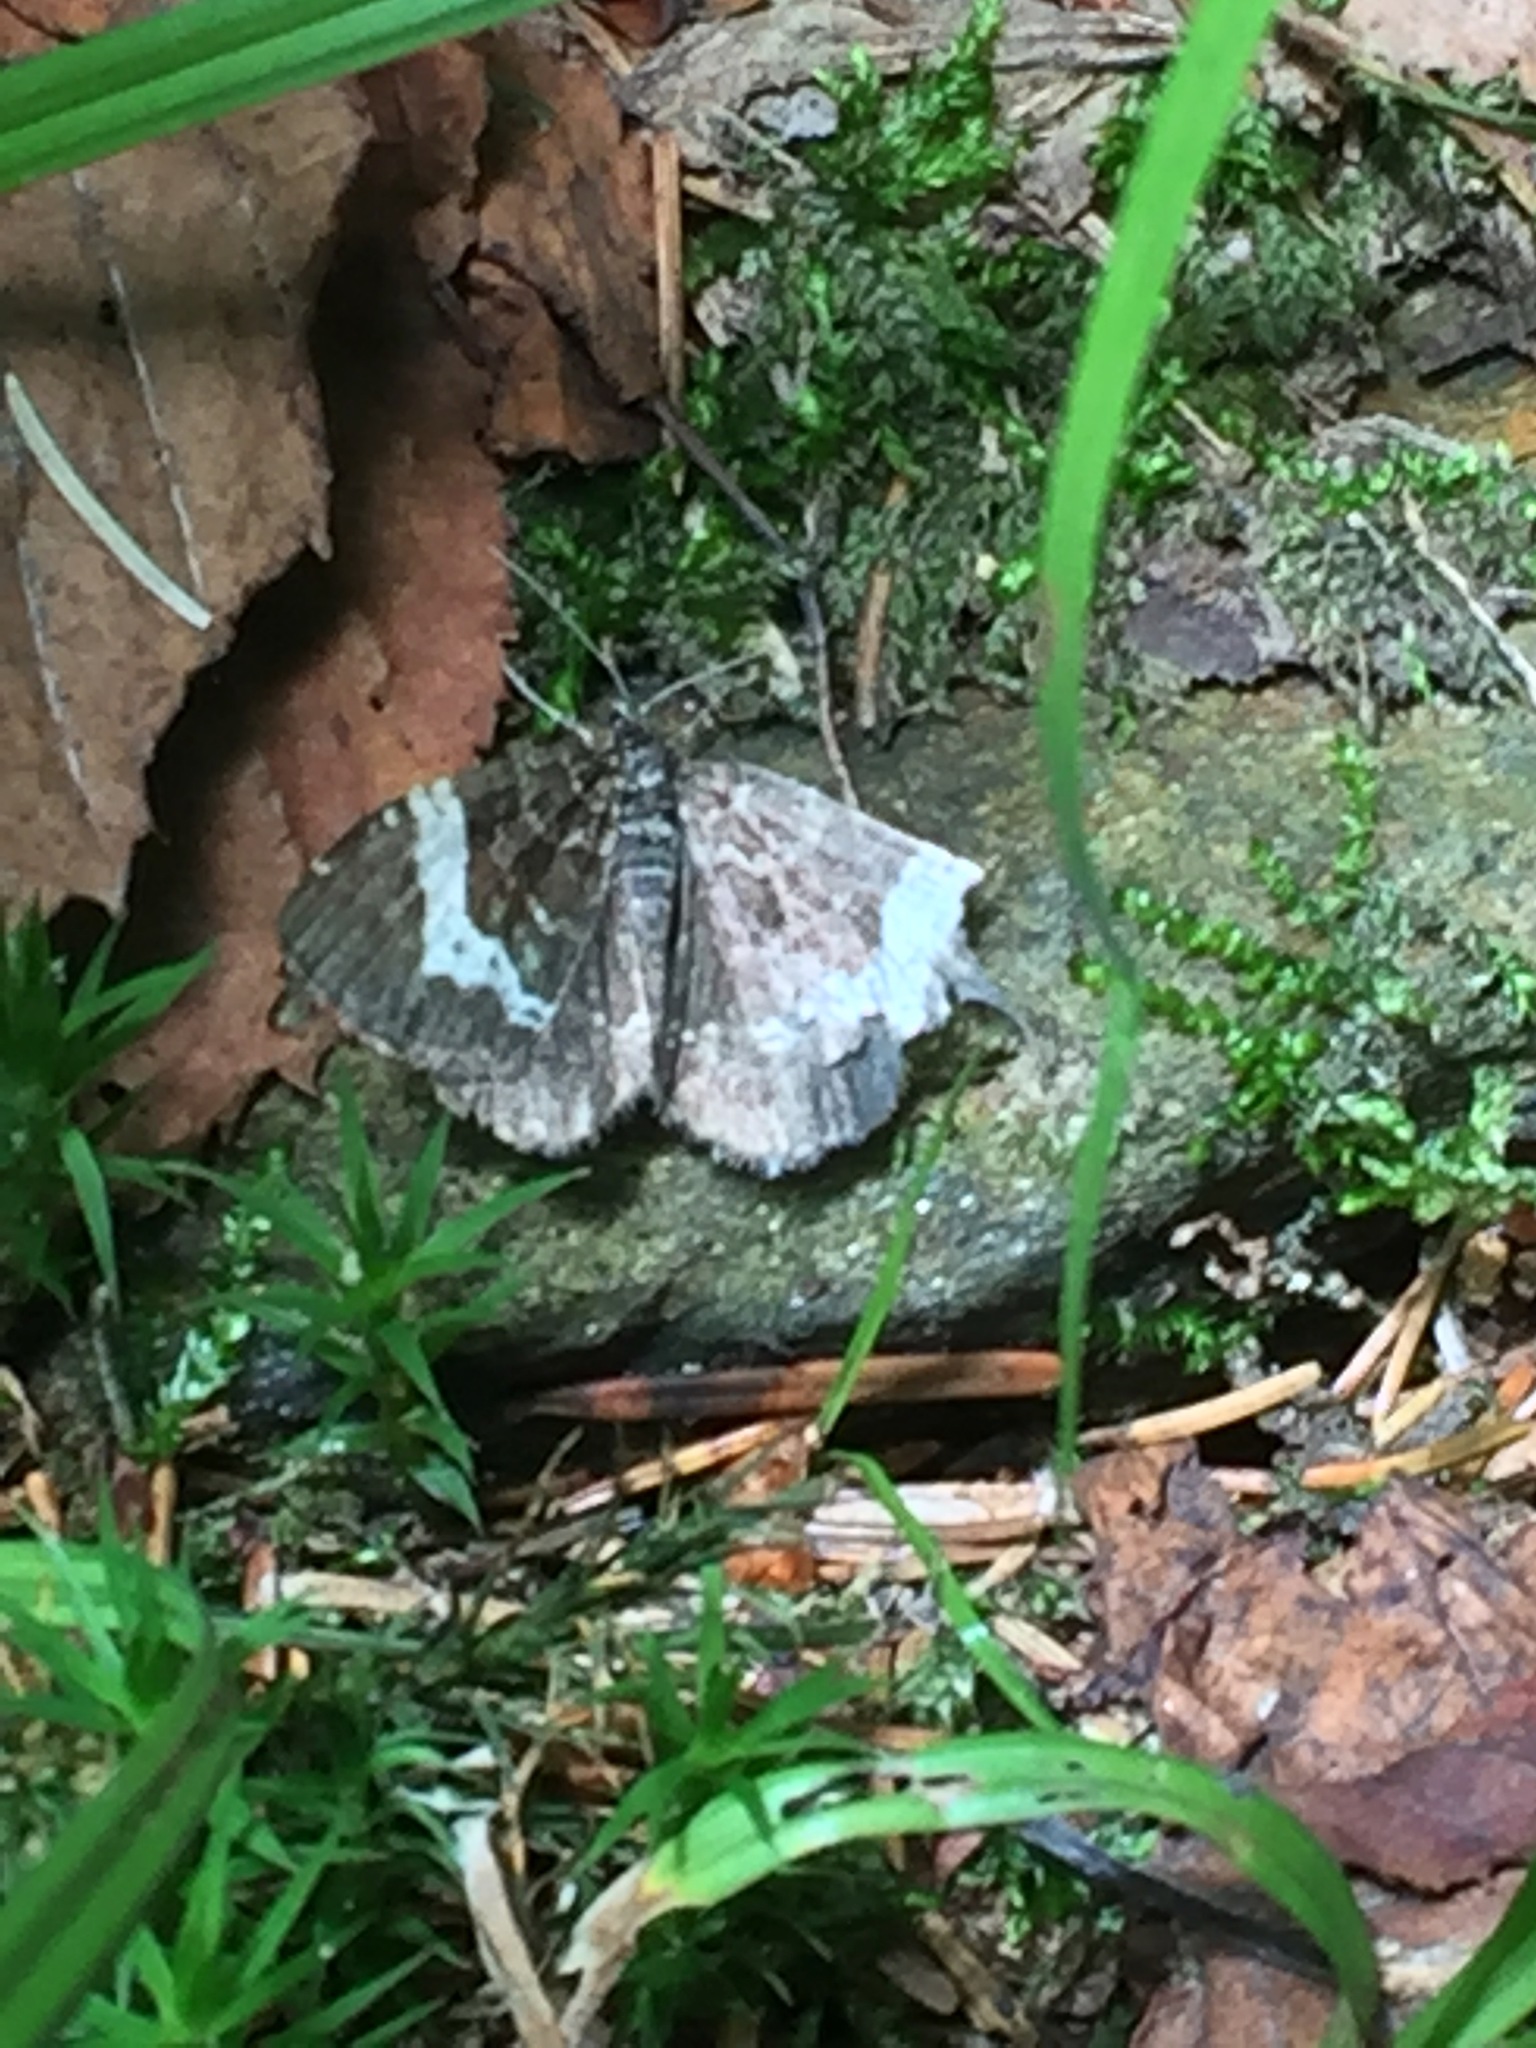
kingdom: Animalia
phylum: Arthropoda
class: Insecta
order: Lepidoptera
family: Geometridae
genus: Rheumaptera
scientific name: Rheumaptera
